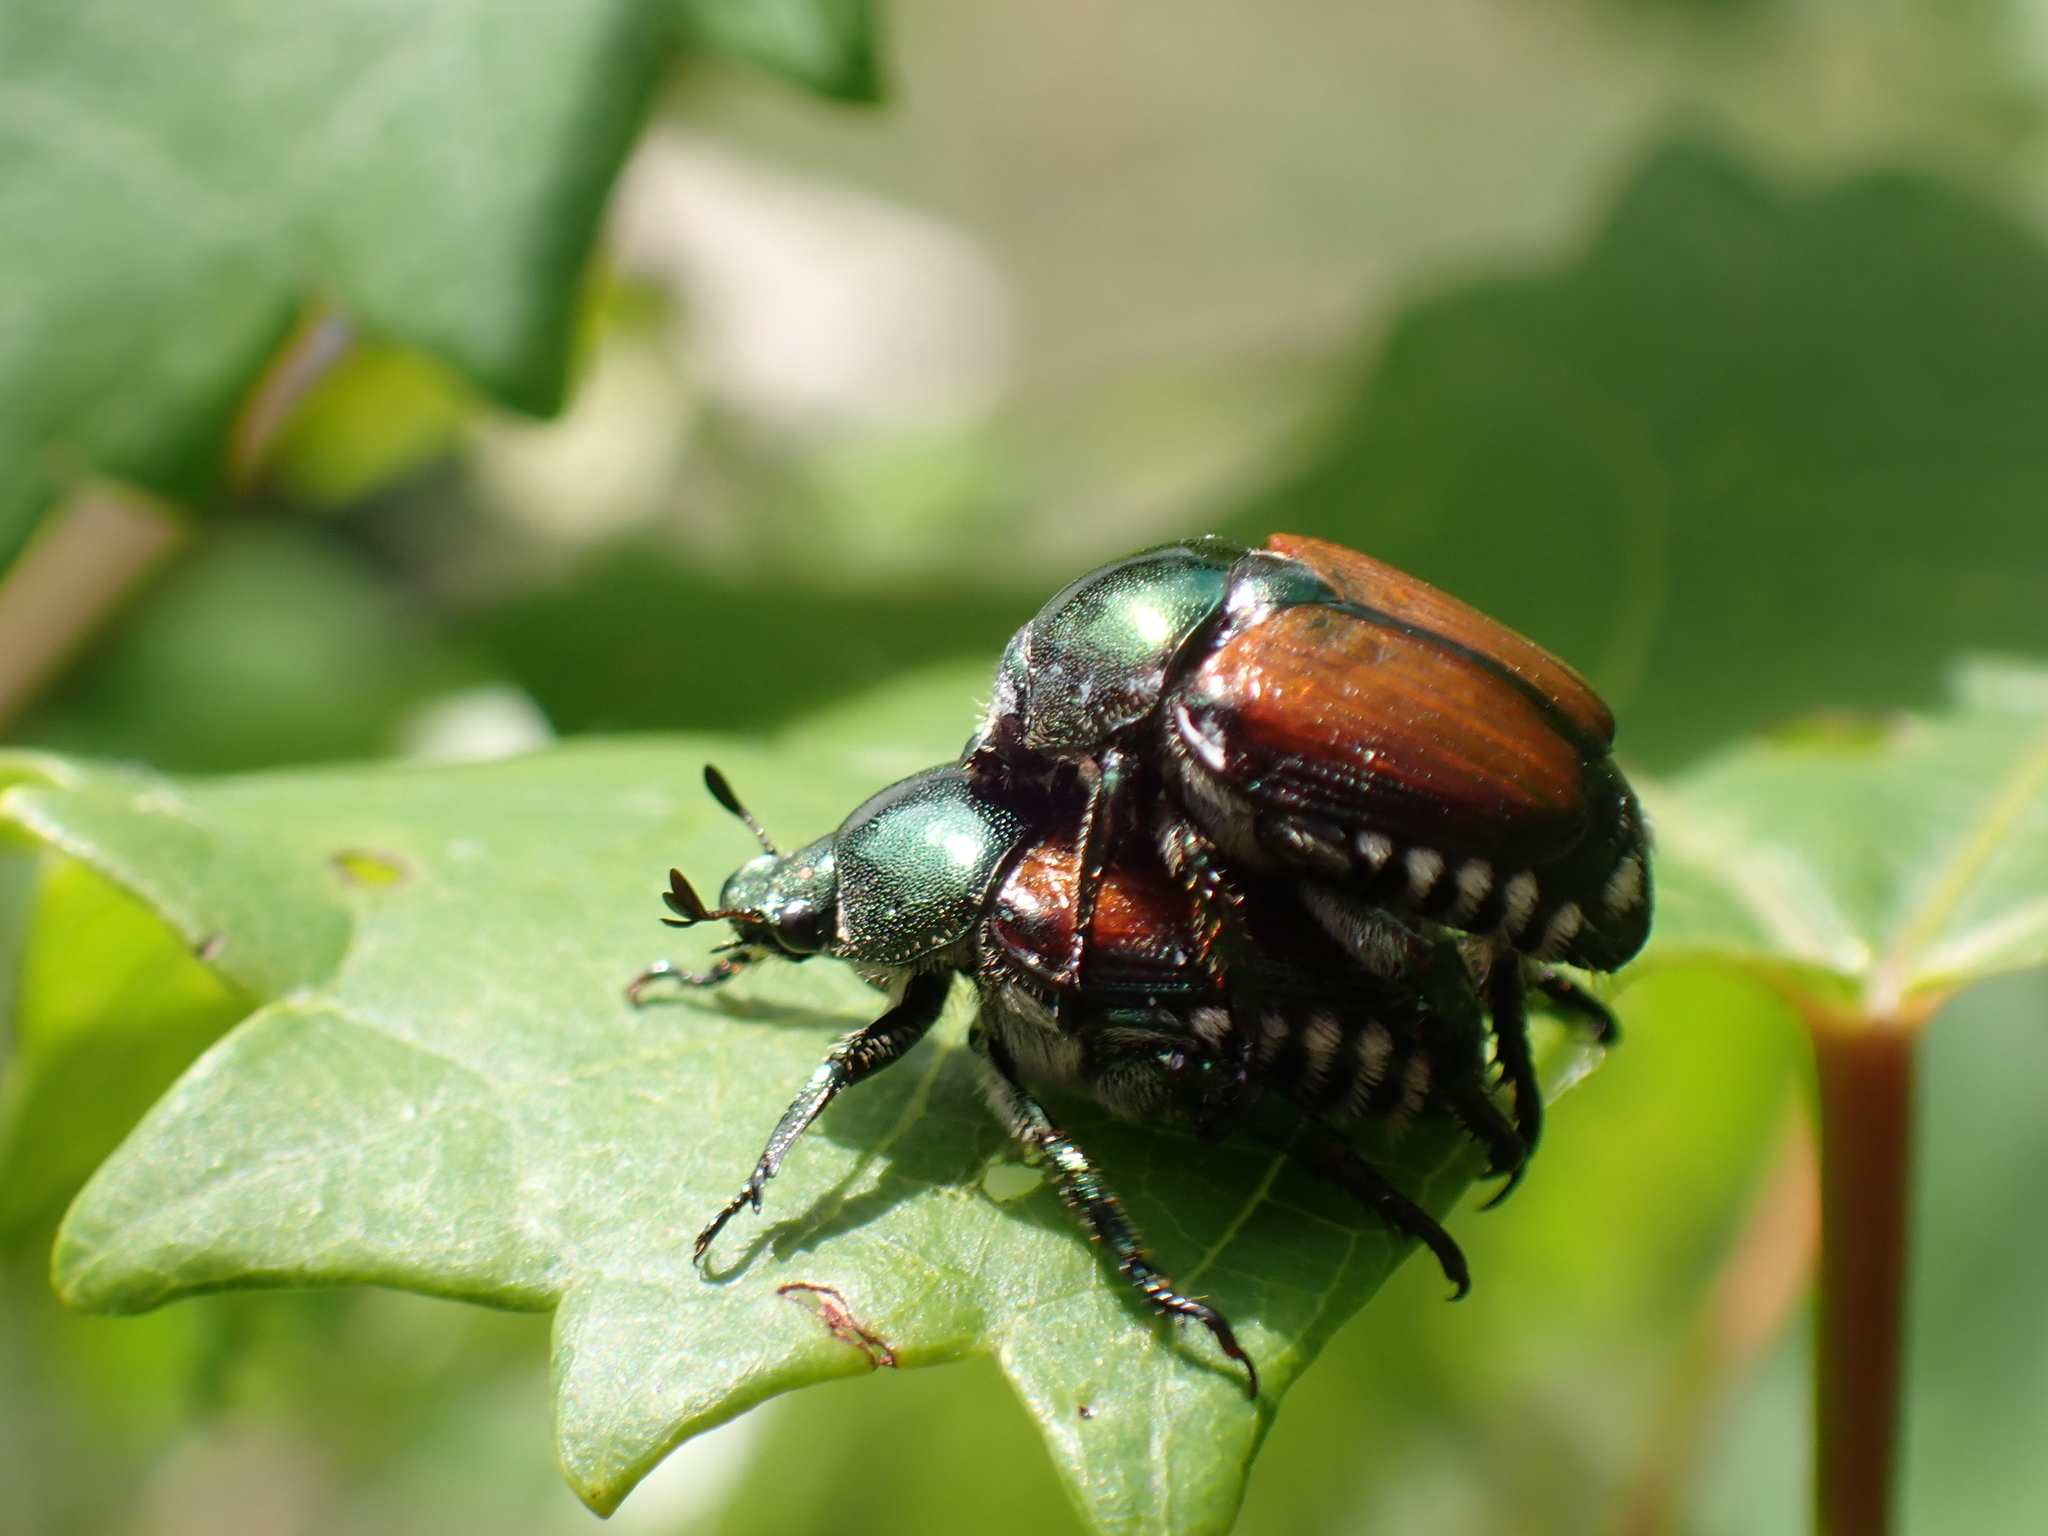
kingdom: Animalia
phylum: Arthropoda
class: Insecta
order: Coleoptera
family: Scarabaeidae
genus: Popillia
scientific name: Popillia japonica
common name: Japanese beetle
